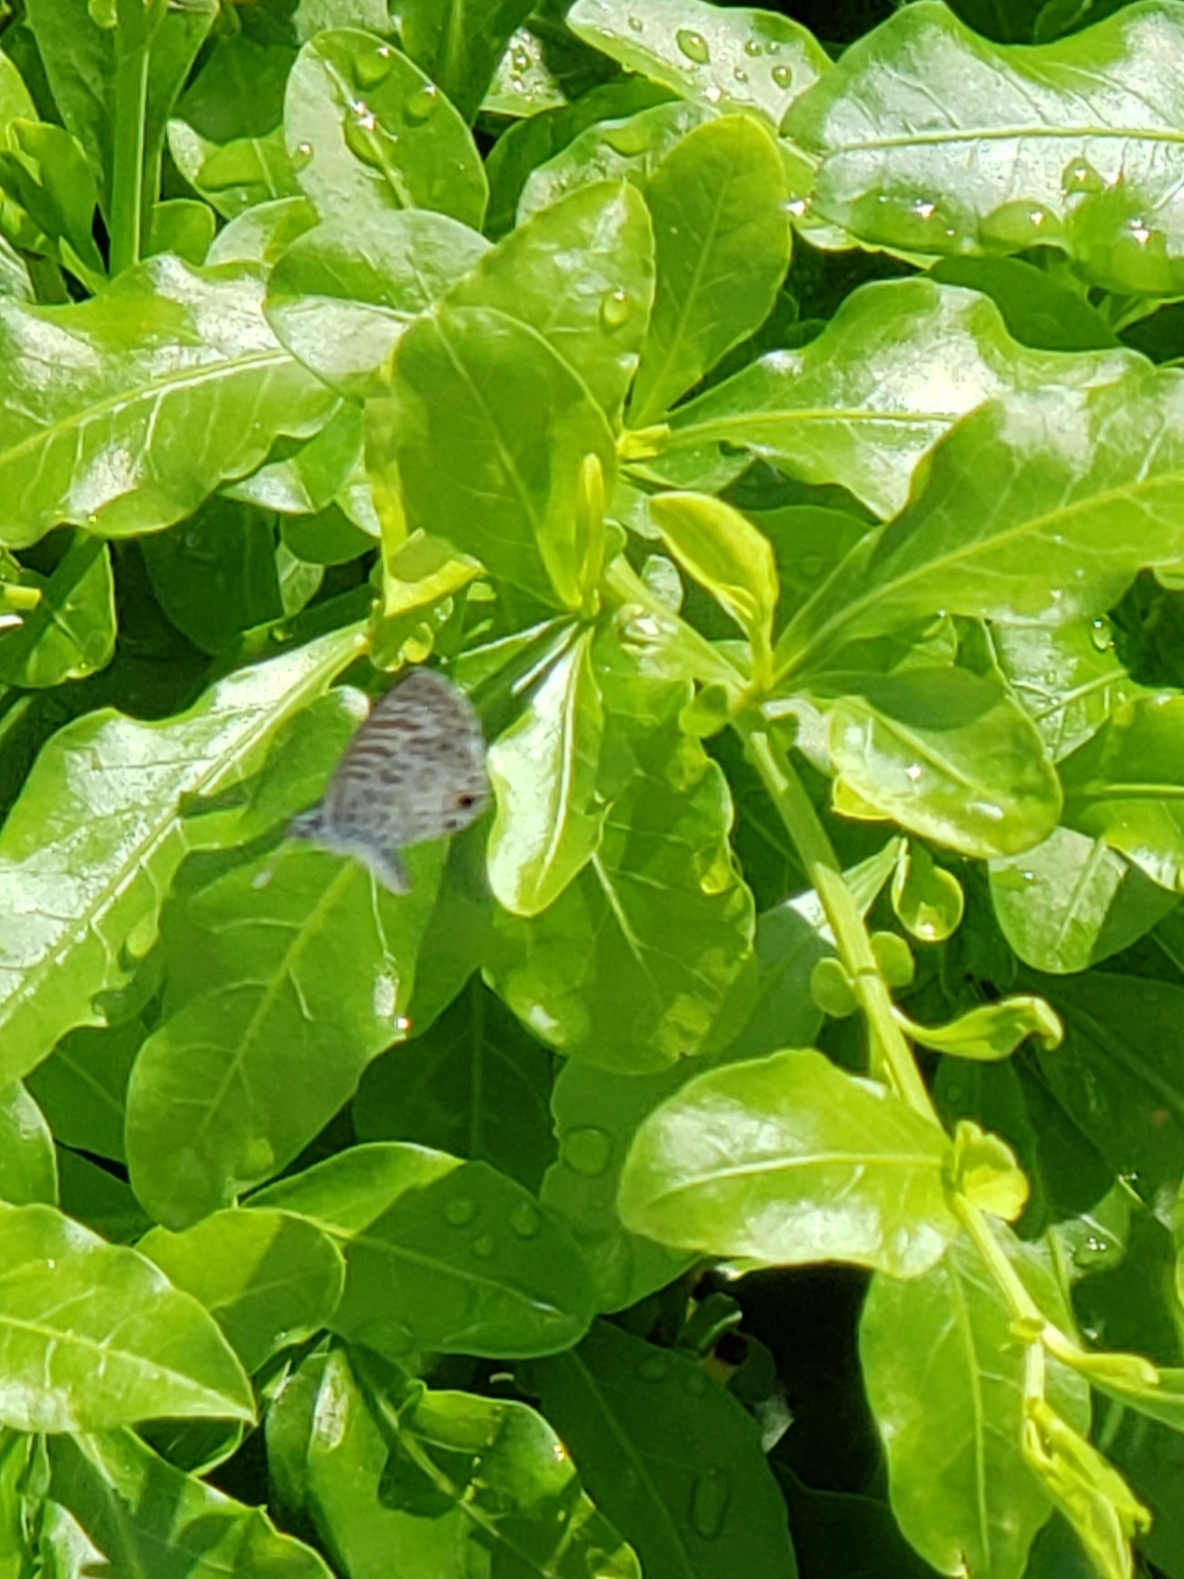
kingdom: Animalia
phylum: Arthropoda
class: Insecta
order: Lepidoptera
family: Lycaenidae
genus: Leptotes
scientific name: Leptotes cassius
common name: Cassius blue
